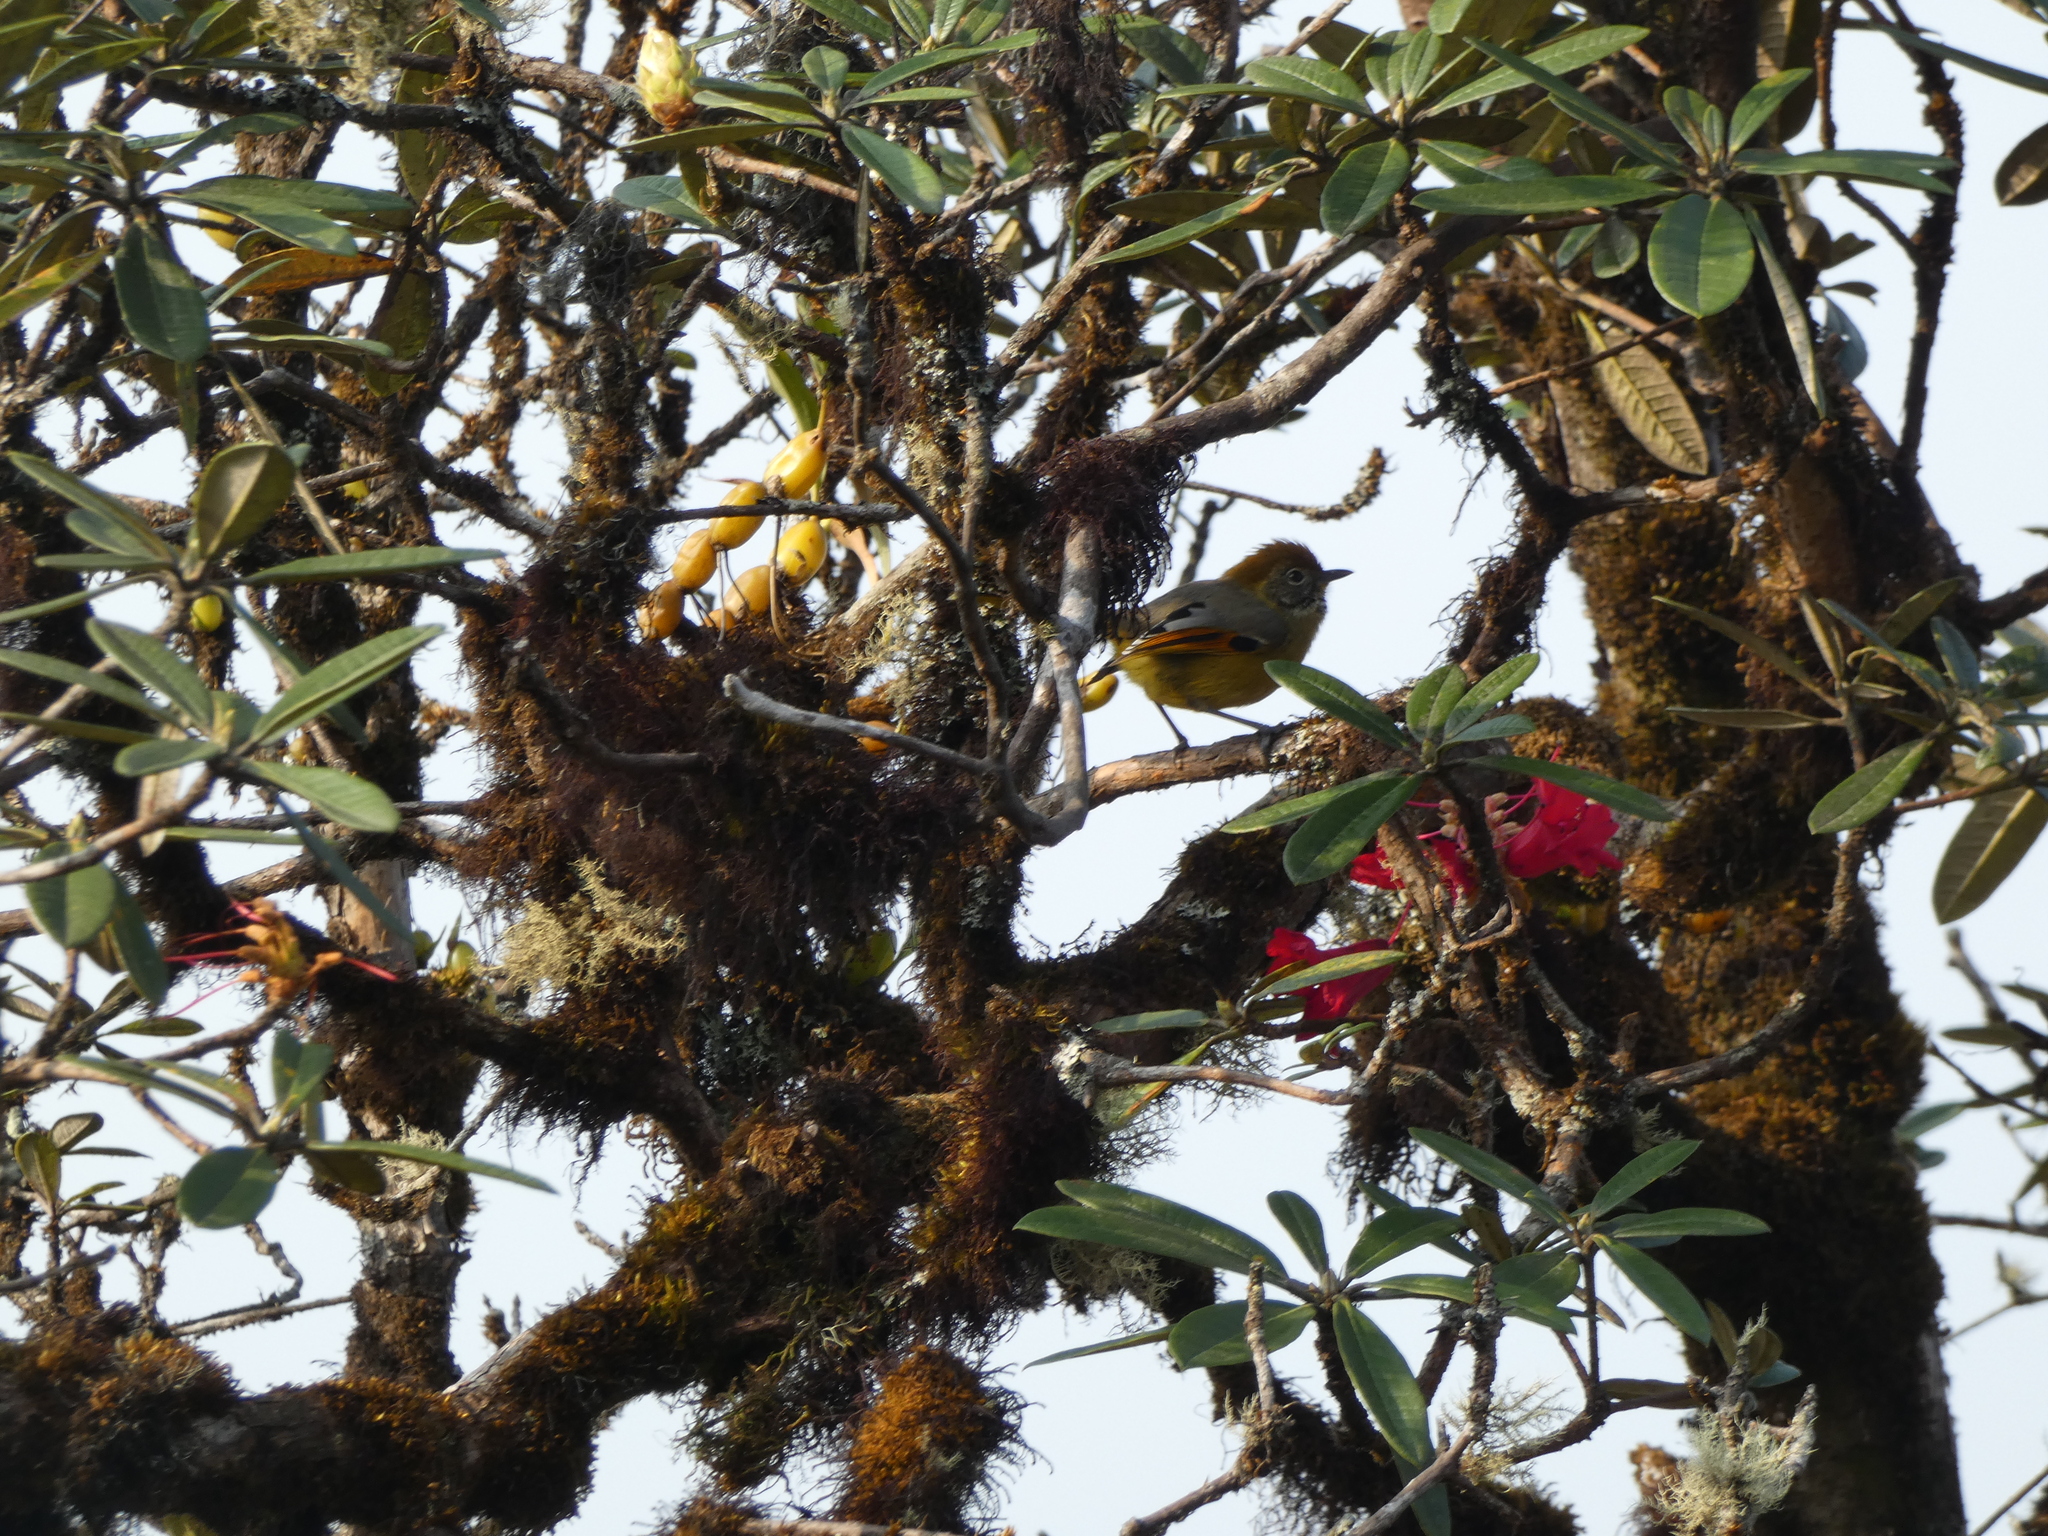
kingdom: Animalia
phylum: Chordata
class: Aves
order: Passeriformes
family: Leiothrichidae
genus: Minla
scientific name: Minla strigula
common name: Chestnut-tailed minla
